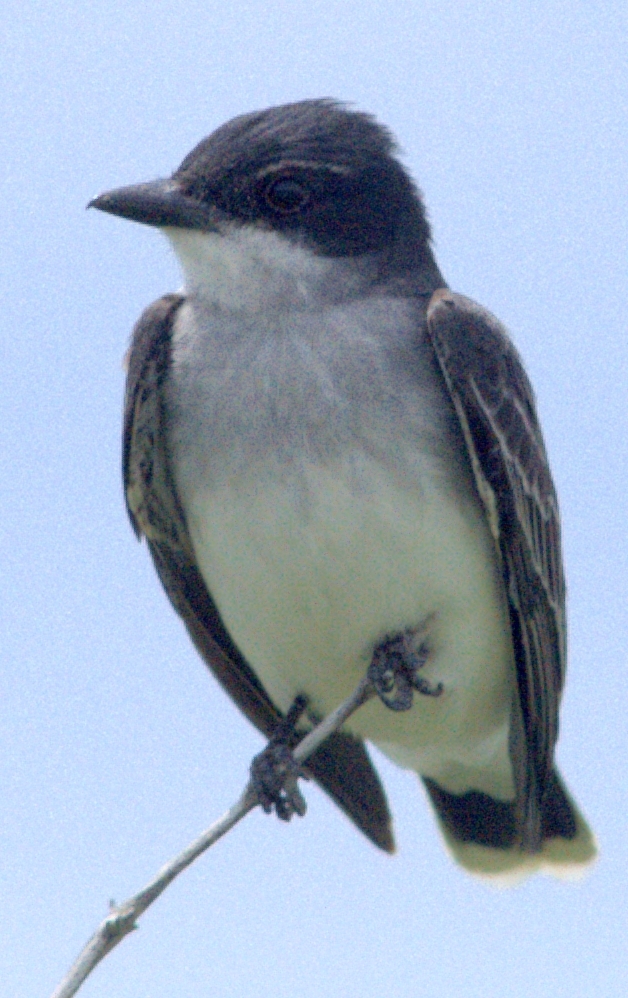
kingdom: Animalia
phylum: Chordata
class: Aves
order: Passeriformes
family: Tyrannidae
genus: Tyrannus
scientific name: Tyrannus tyrannus
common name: Eastern kingbird
